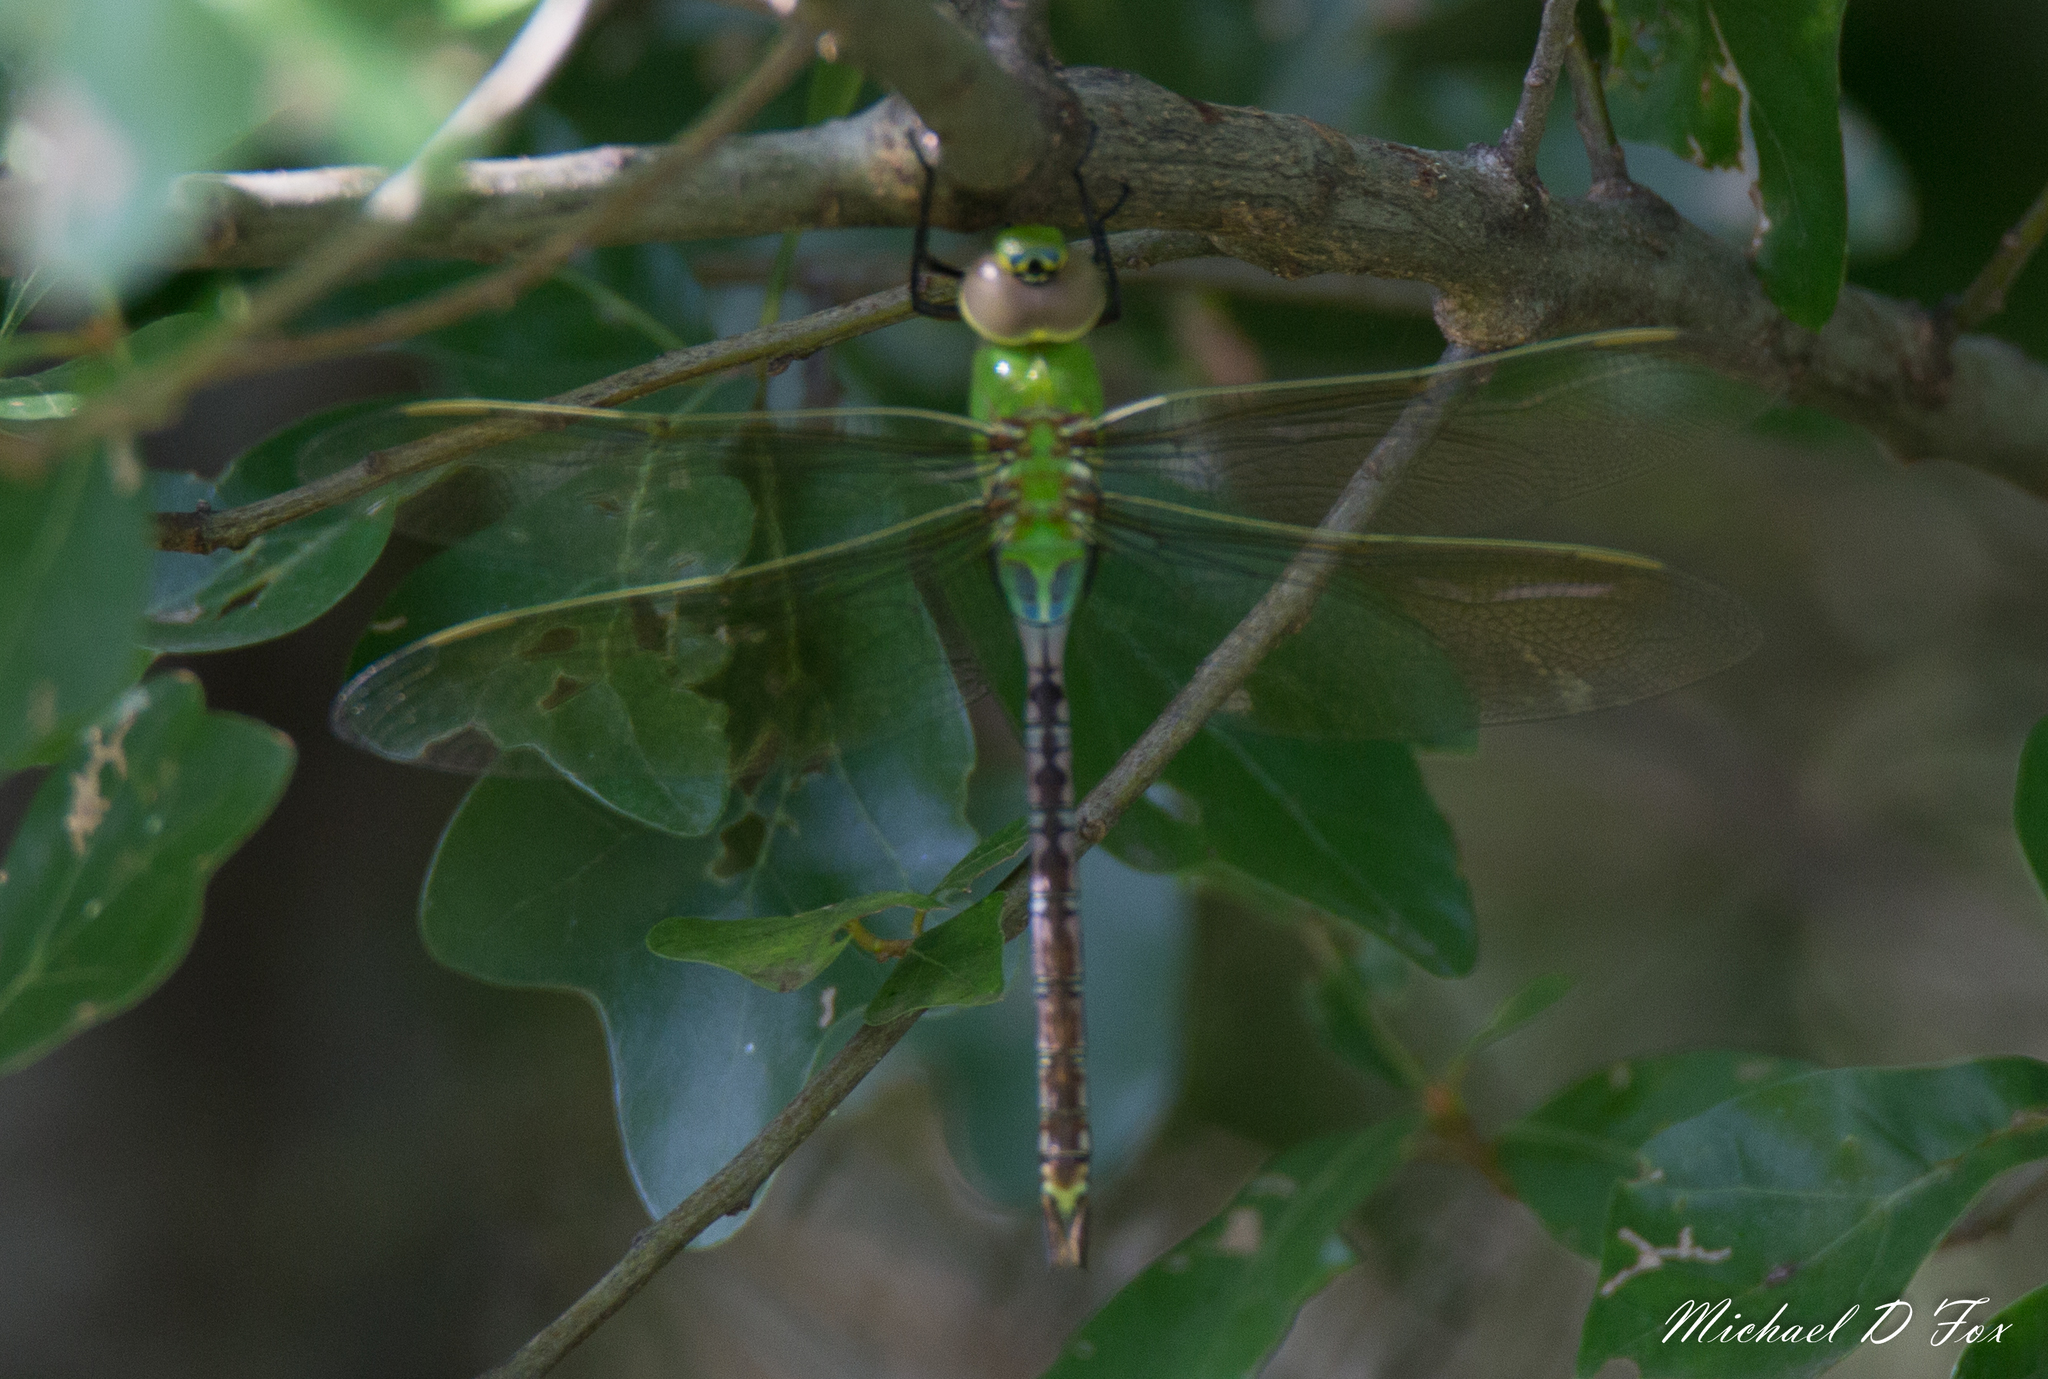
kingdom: Animalia
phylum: Arthropoda
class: Insecta
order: Odonata
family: Aeshnidae
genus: Anax
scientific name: Anax junius
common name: Common green darner
